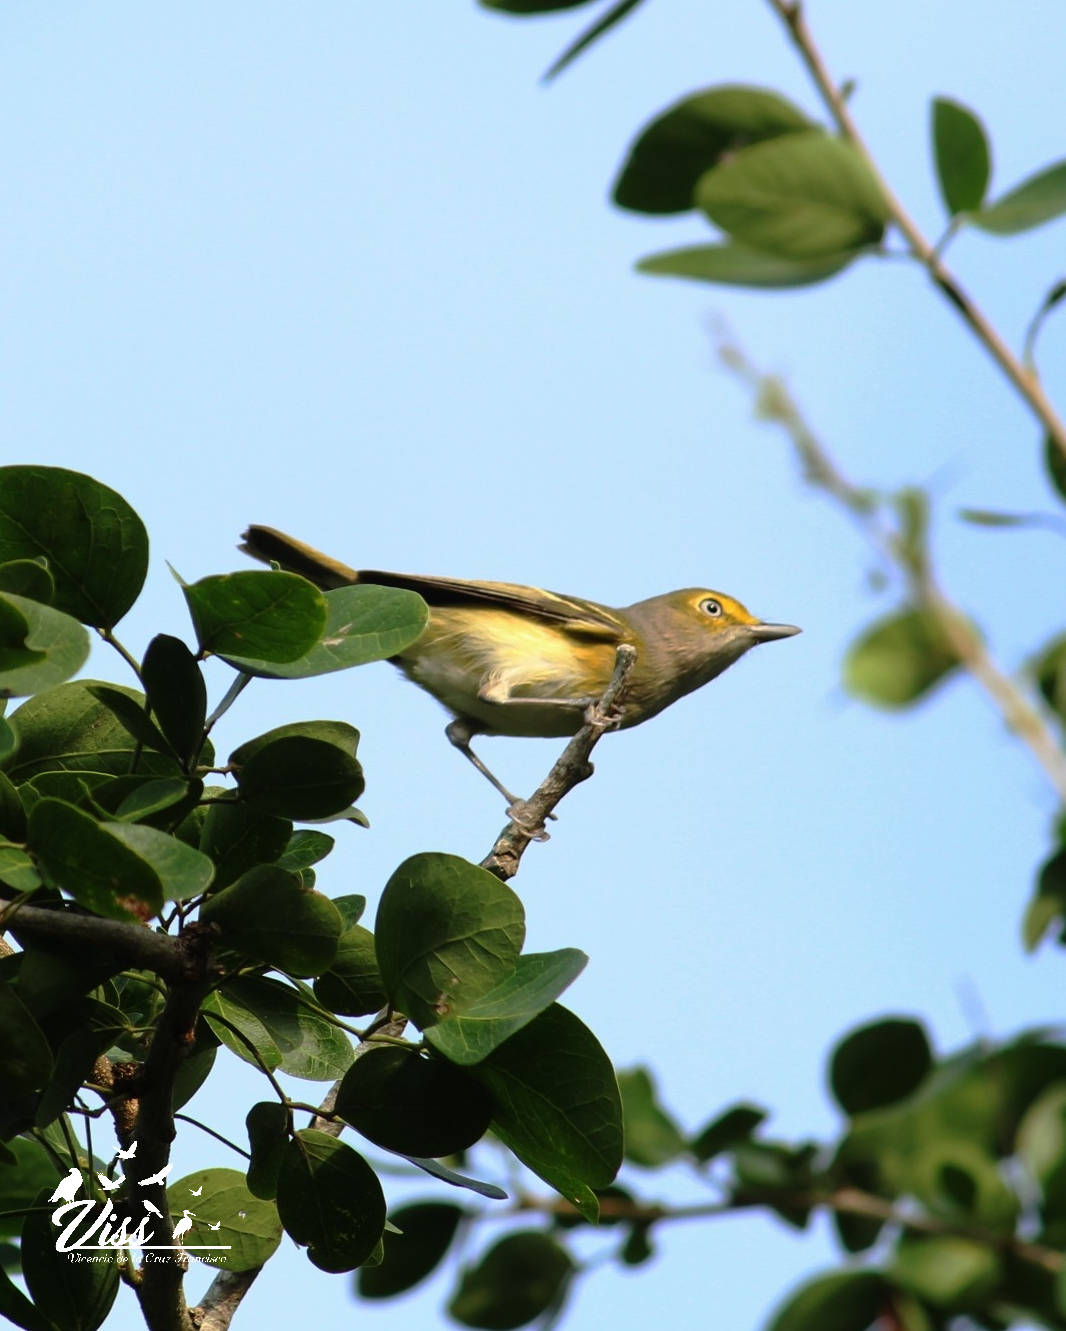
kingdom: Animalia
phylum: Chordata
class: Aves
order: Passeriformes
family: Vireonidae
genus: Vireo
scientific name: Vireo griseus
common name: White-eyed vireo
